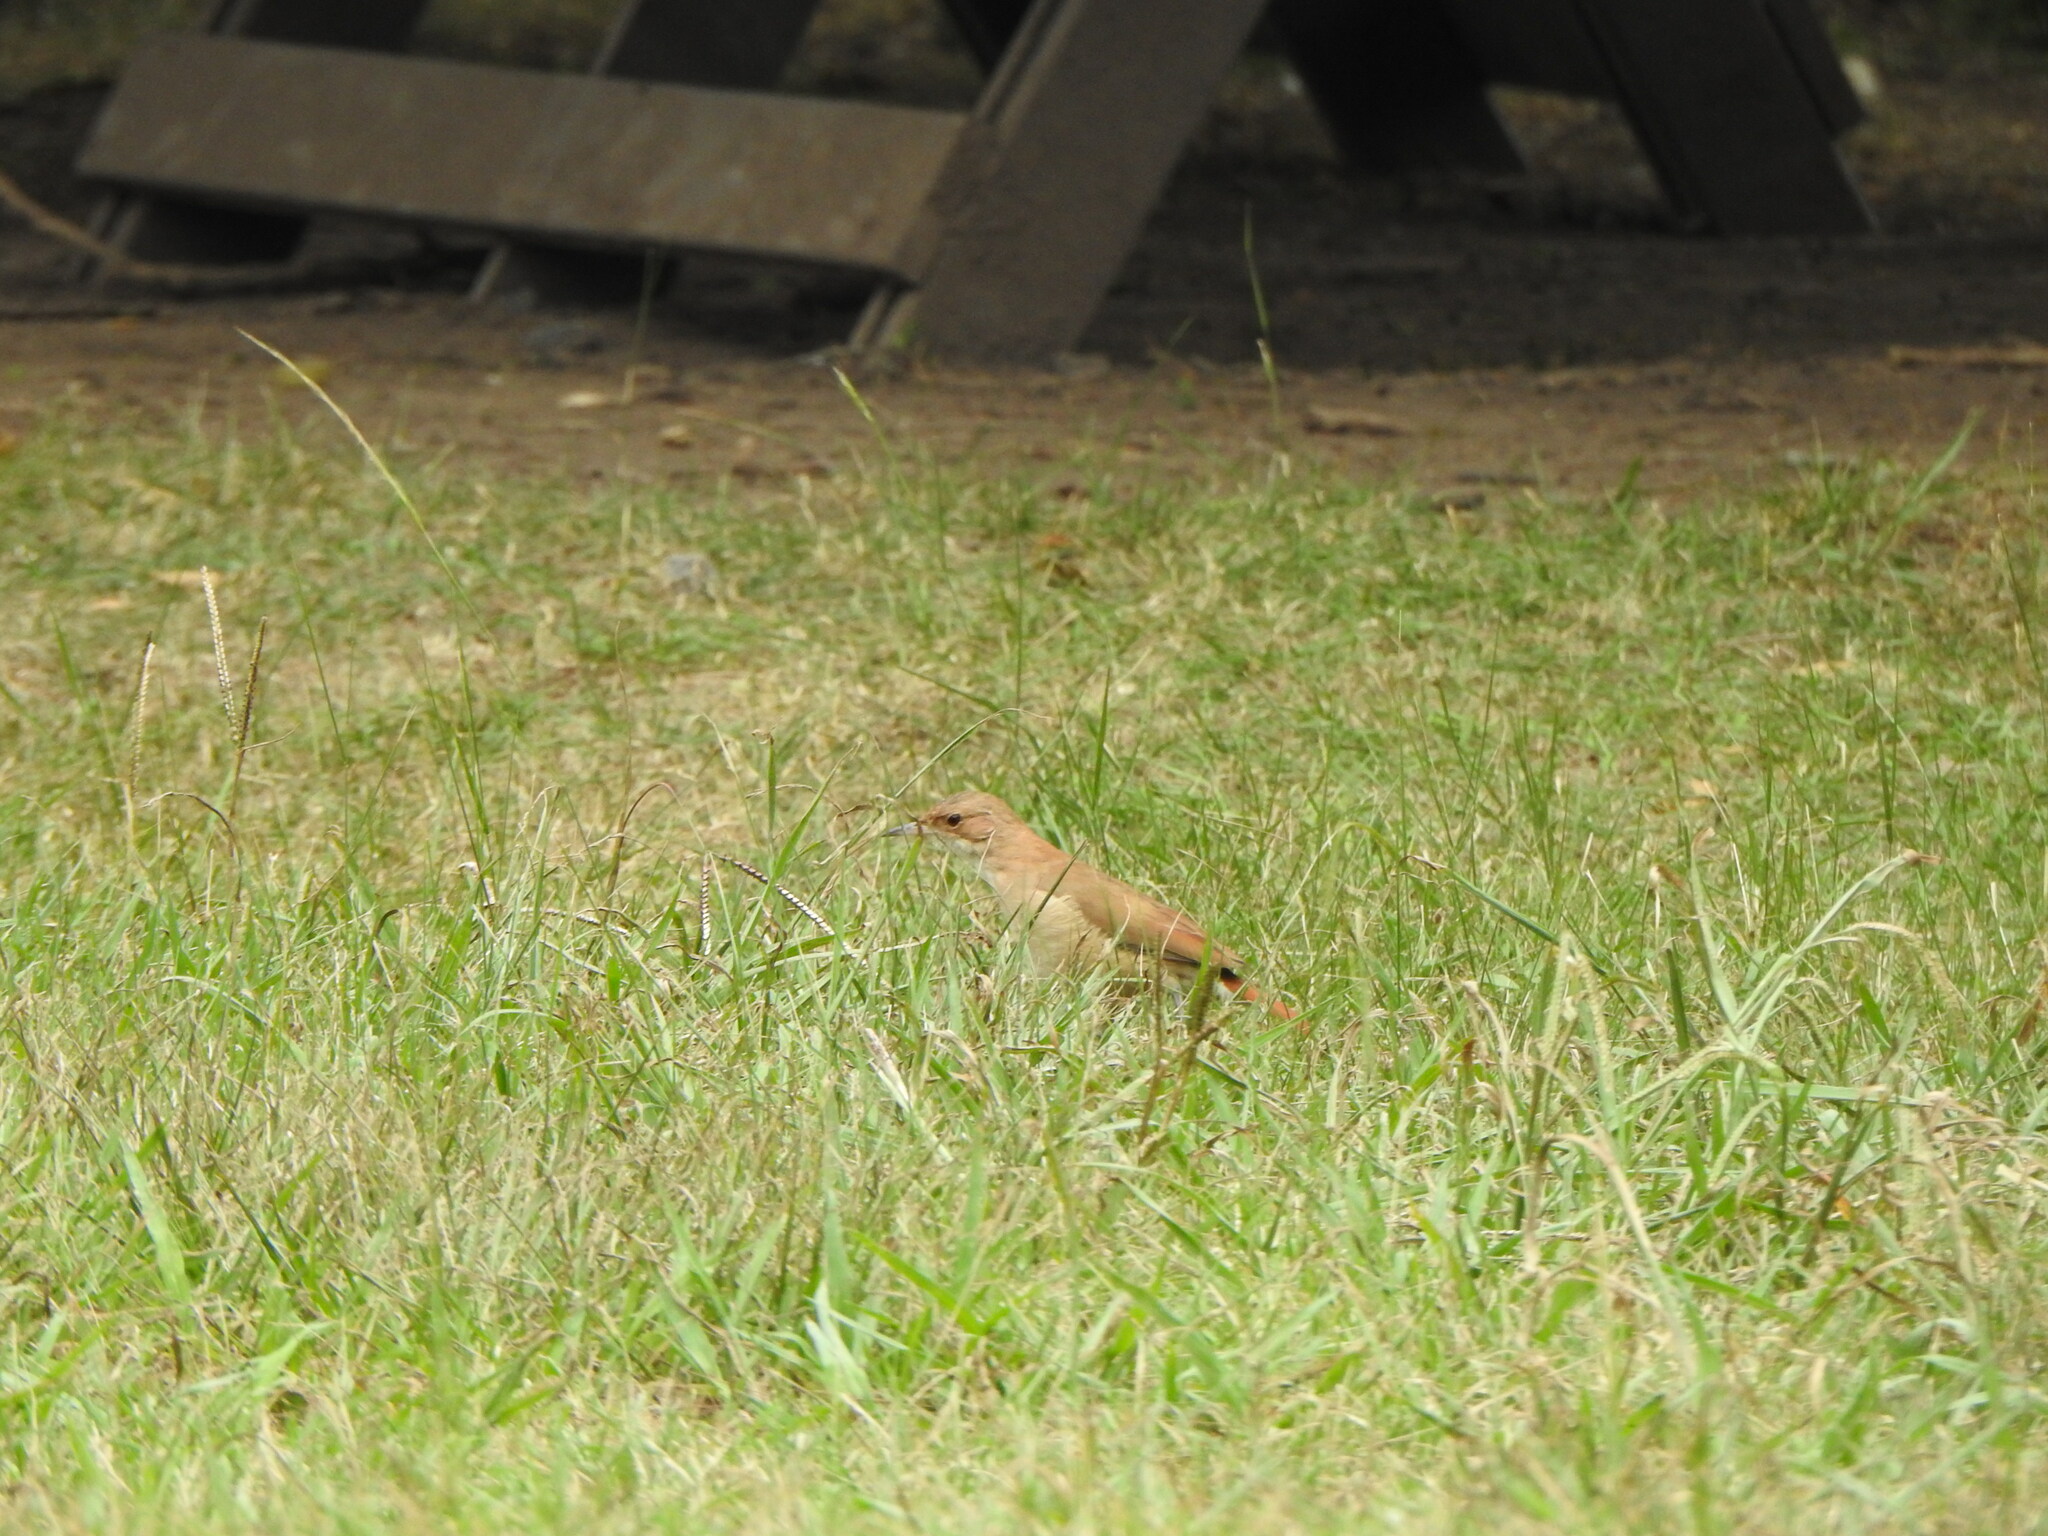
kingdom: Animalia
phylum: Chordata
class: Aves
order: Passeriformes
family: Furnariidae
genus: Furnarius
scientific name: Furnarius rufus
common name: Rufous hornero
